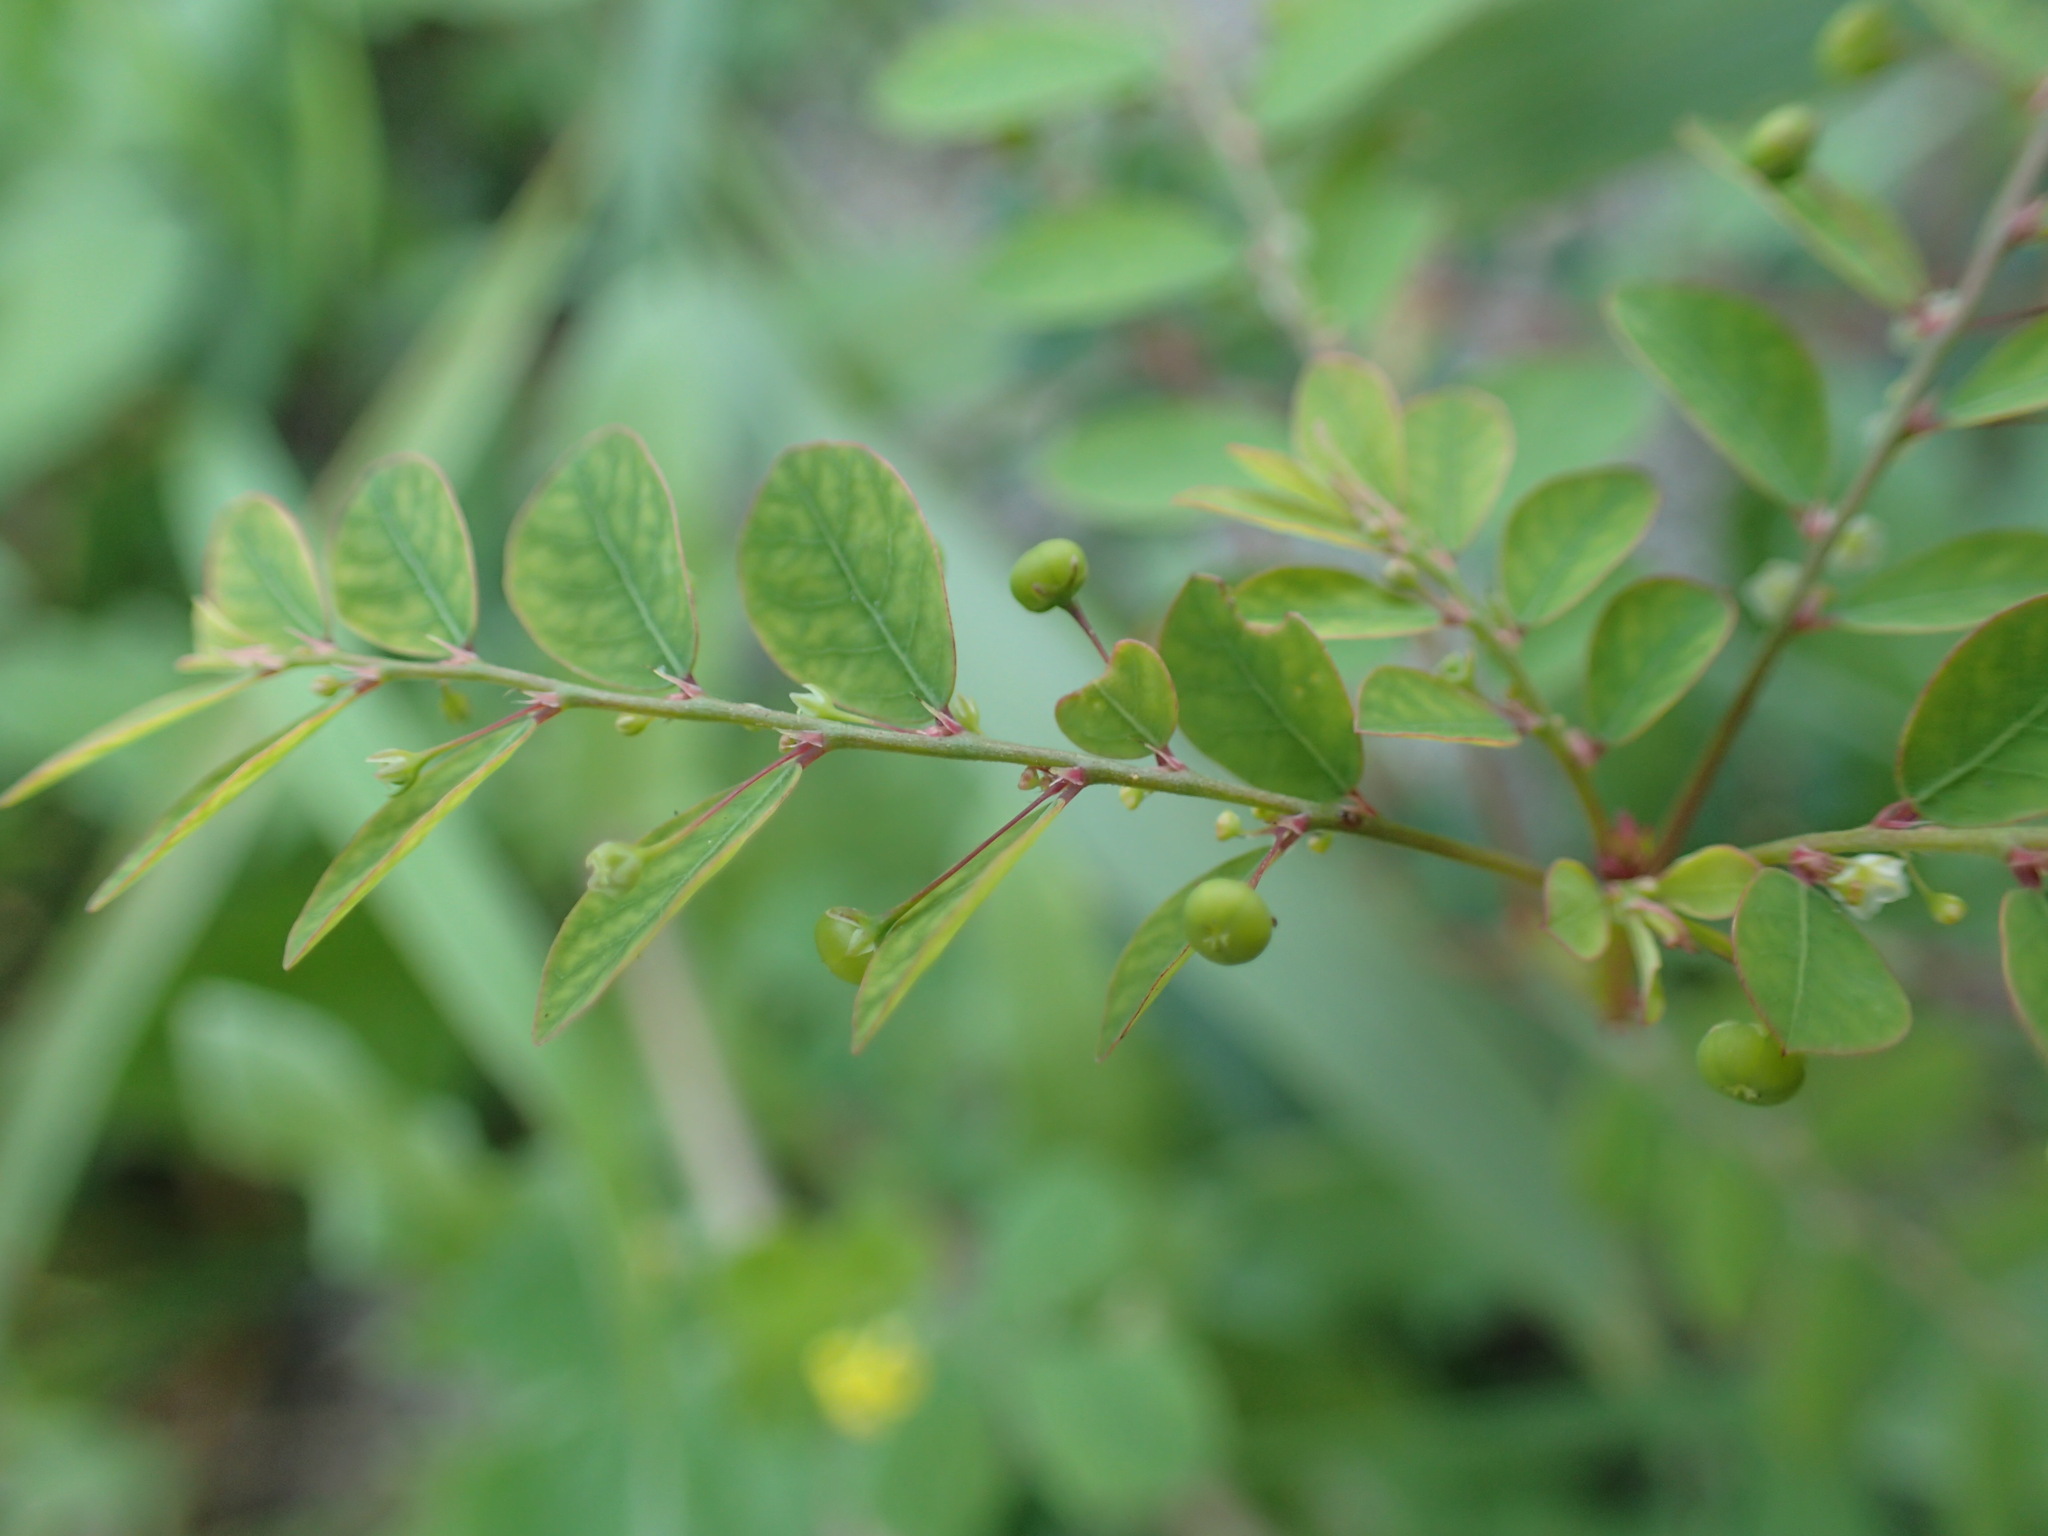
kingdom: Plantae
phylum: Tracheophyta
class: Magnoliopsida
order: Malpighiales
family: Phyllanthaceae
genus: Phyllanthus
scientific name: Phyllanthus tenellus
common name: Mascarene island leaf-flower
